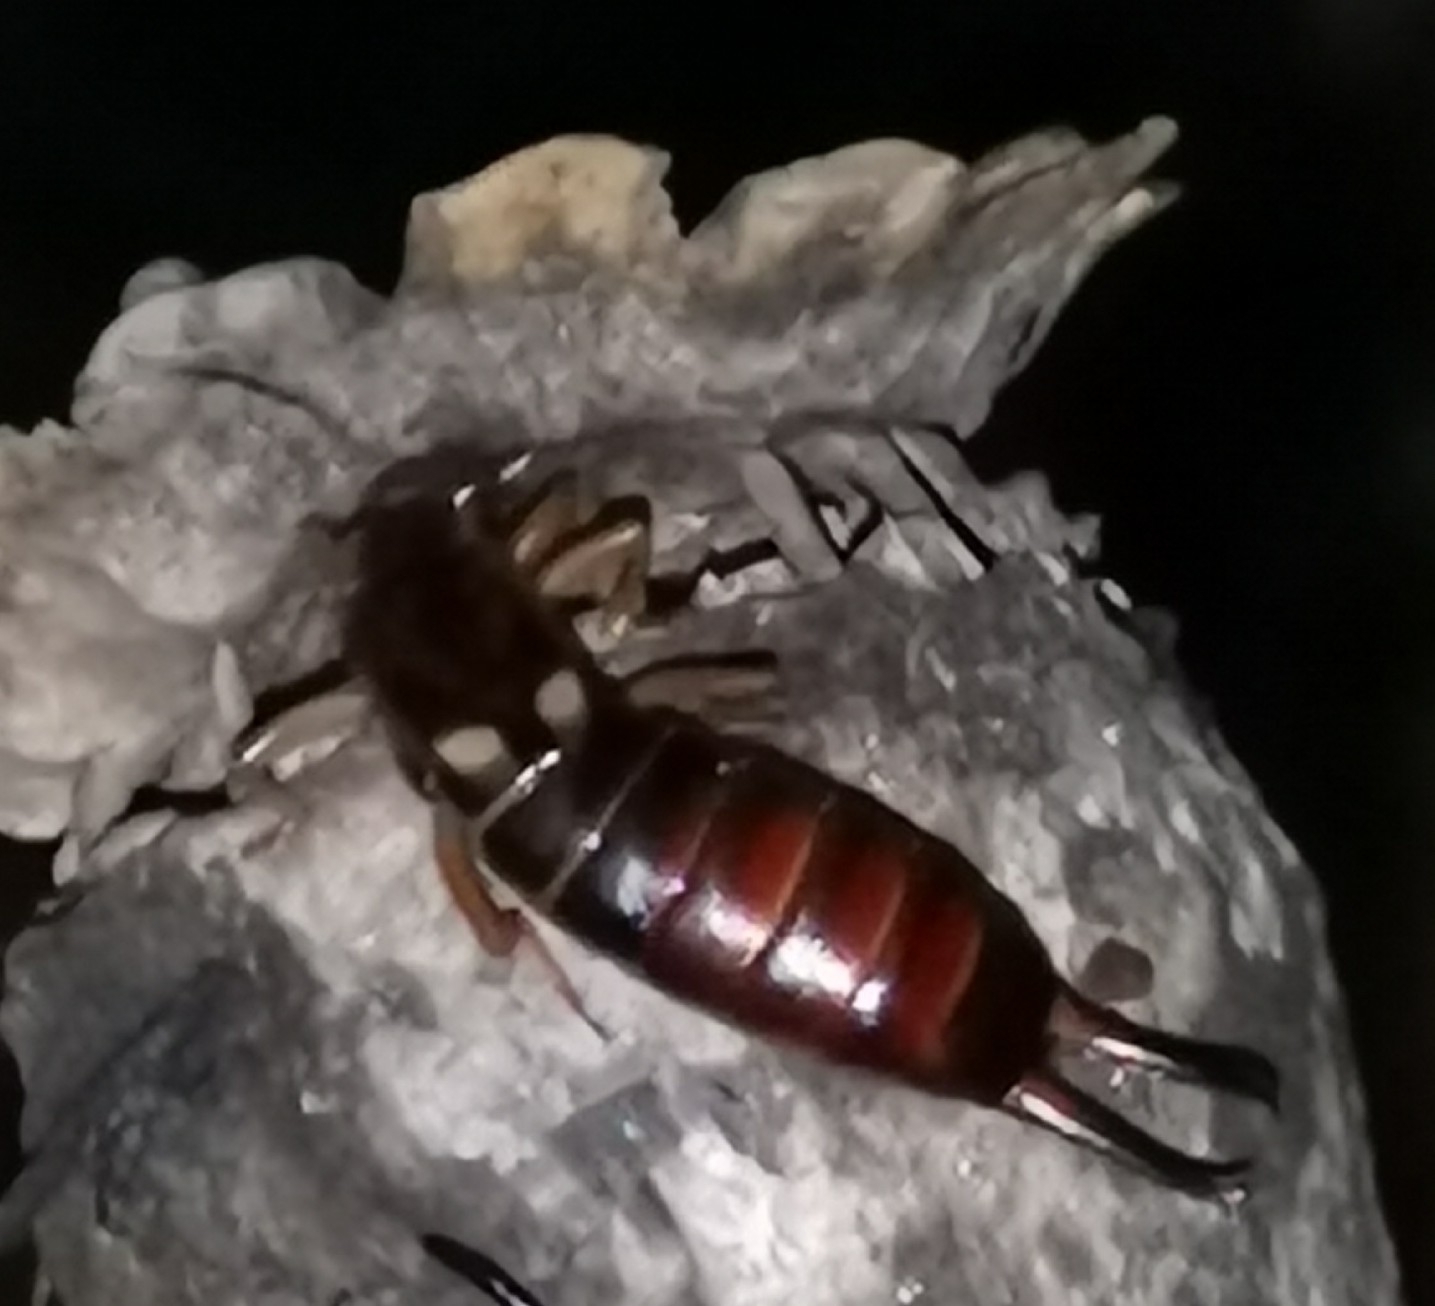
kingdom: Animalia
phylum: Arthropoda
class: Insecta
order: Dermaptera
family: Forficulidae
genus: Forficula
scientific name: Forficula
